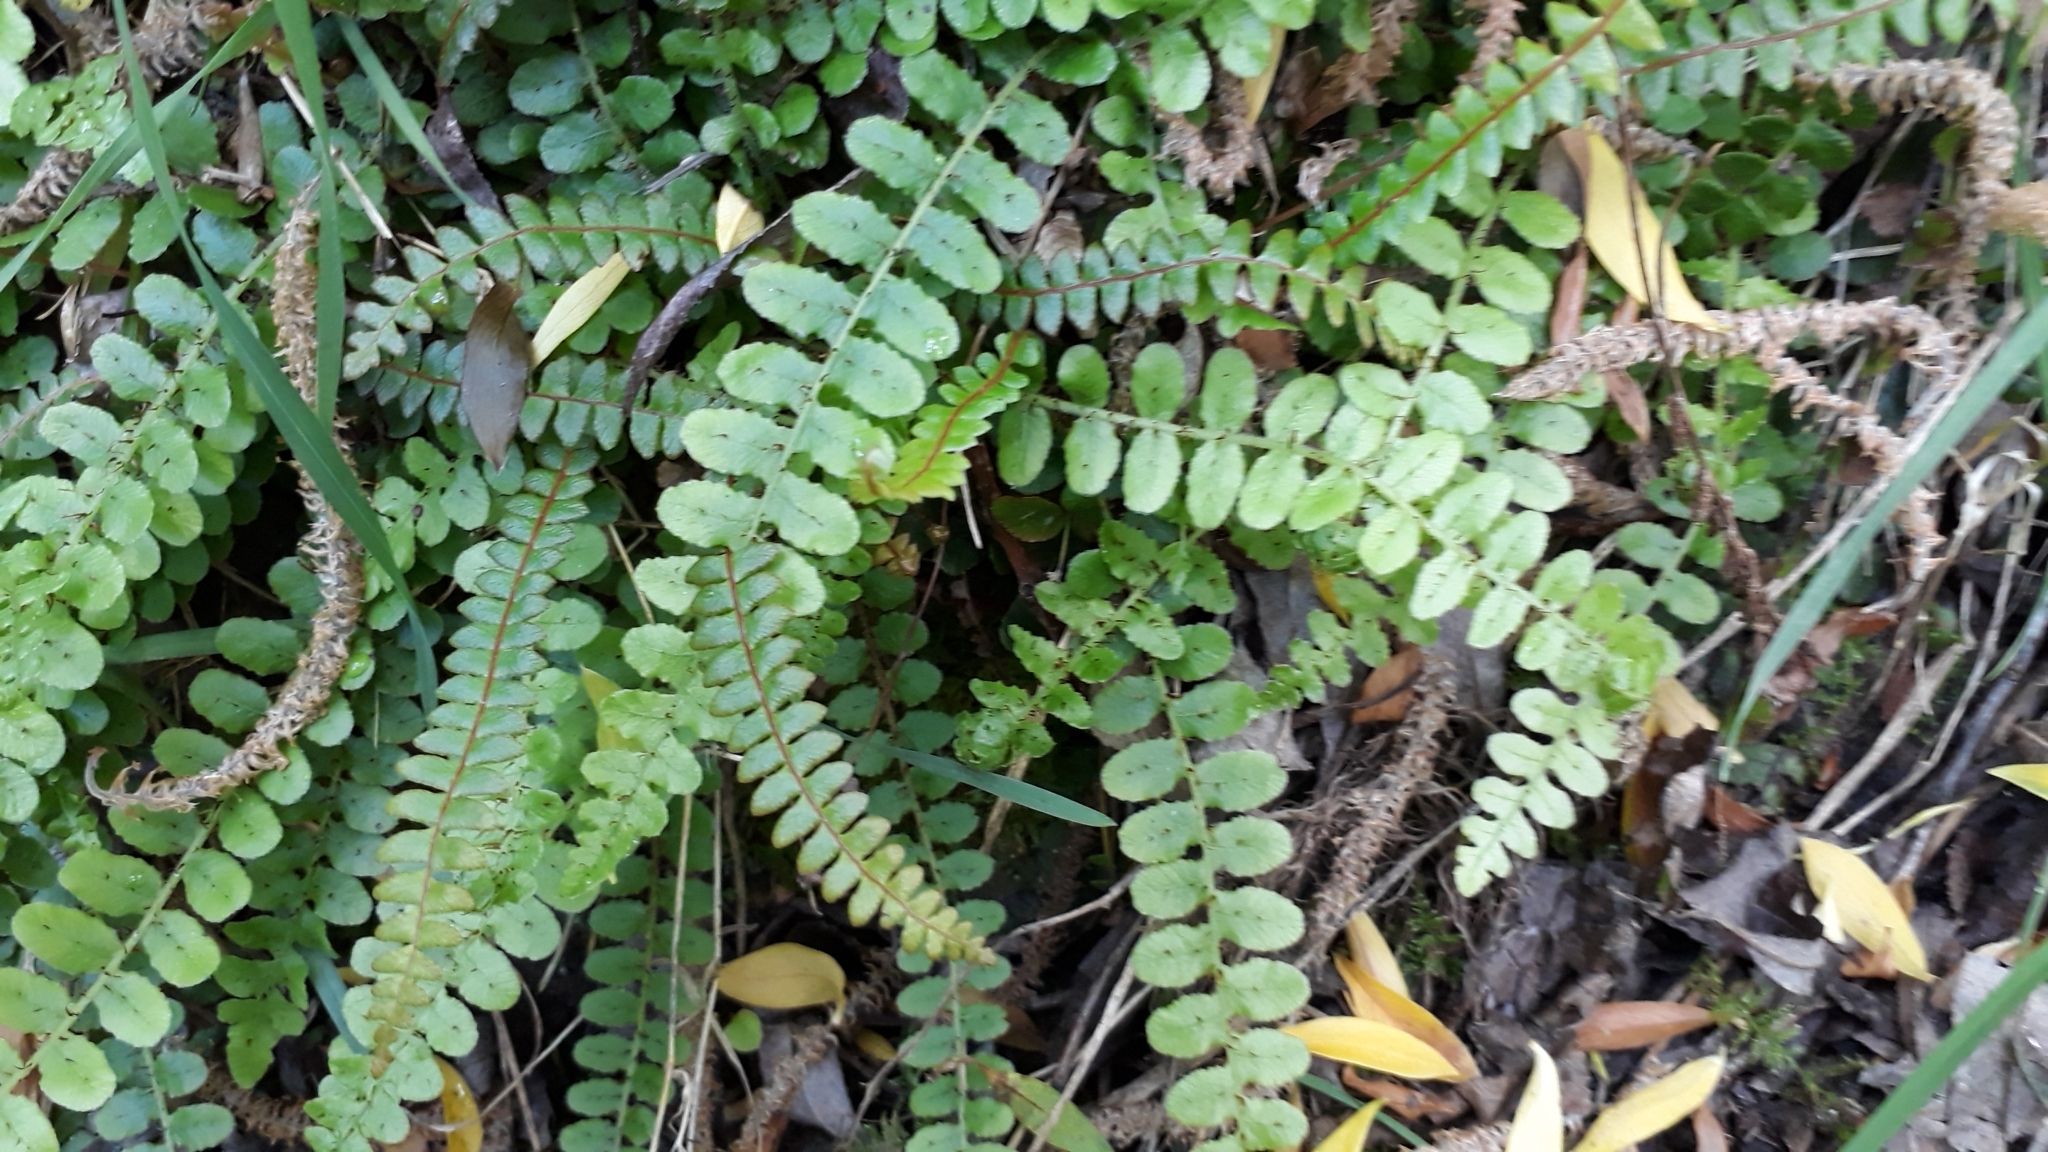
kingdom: Plantae
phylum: Tracheophyta
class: Polypodiopsida
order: Polypodiales
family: Blechnaceae
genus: Cranfillia
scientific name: Cranfillia fluviatilis
